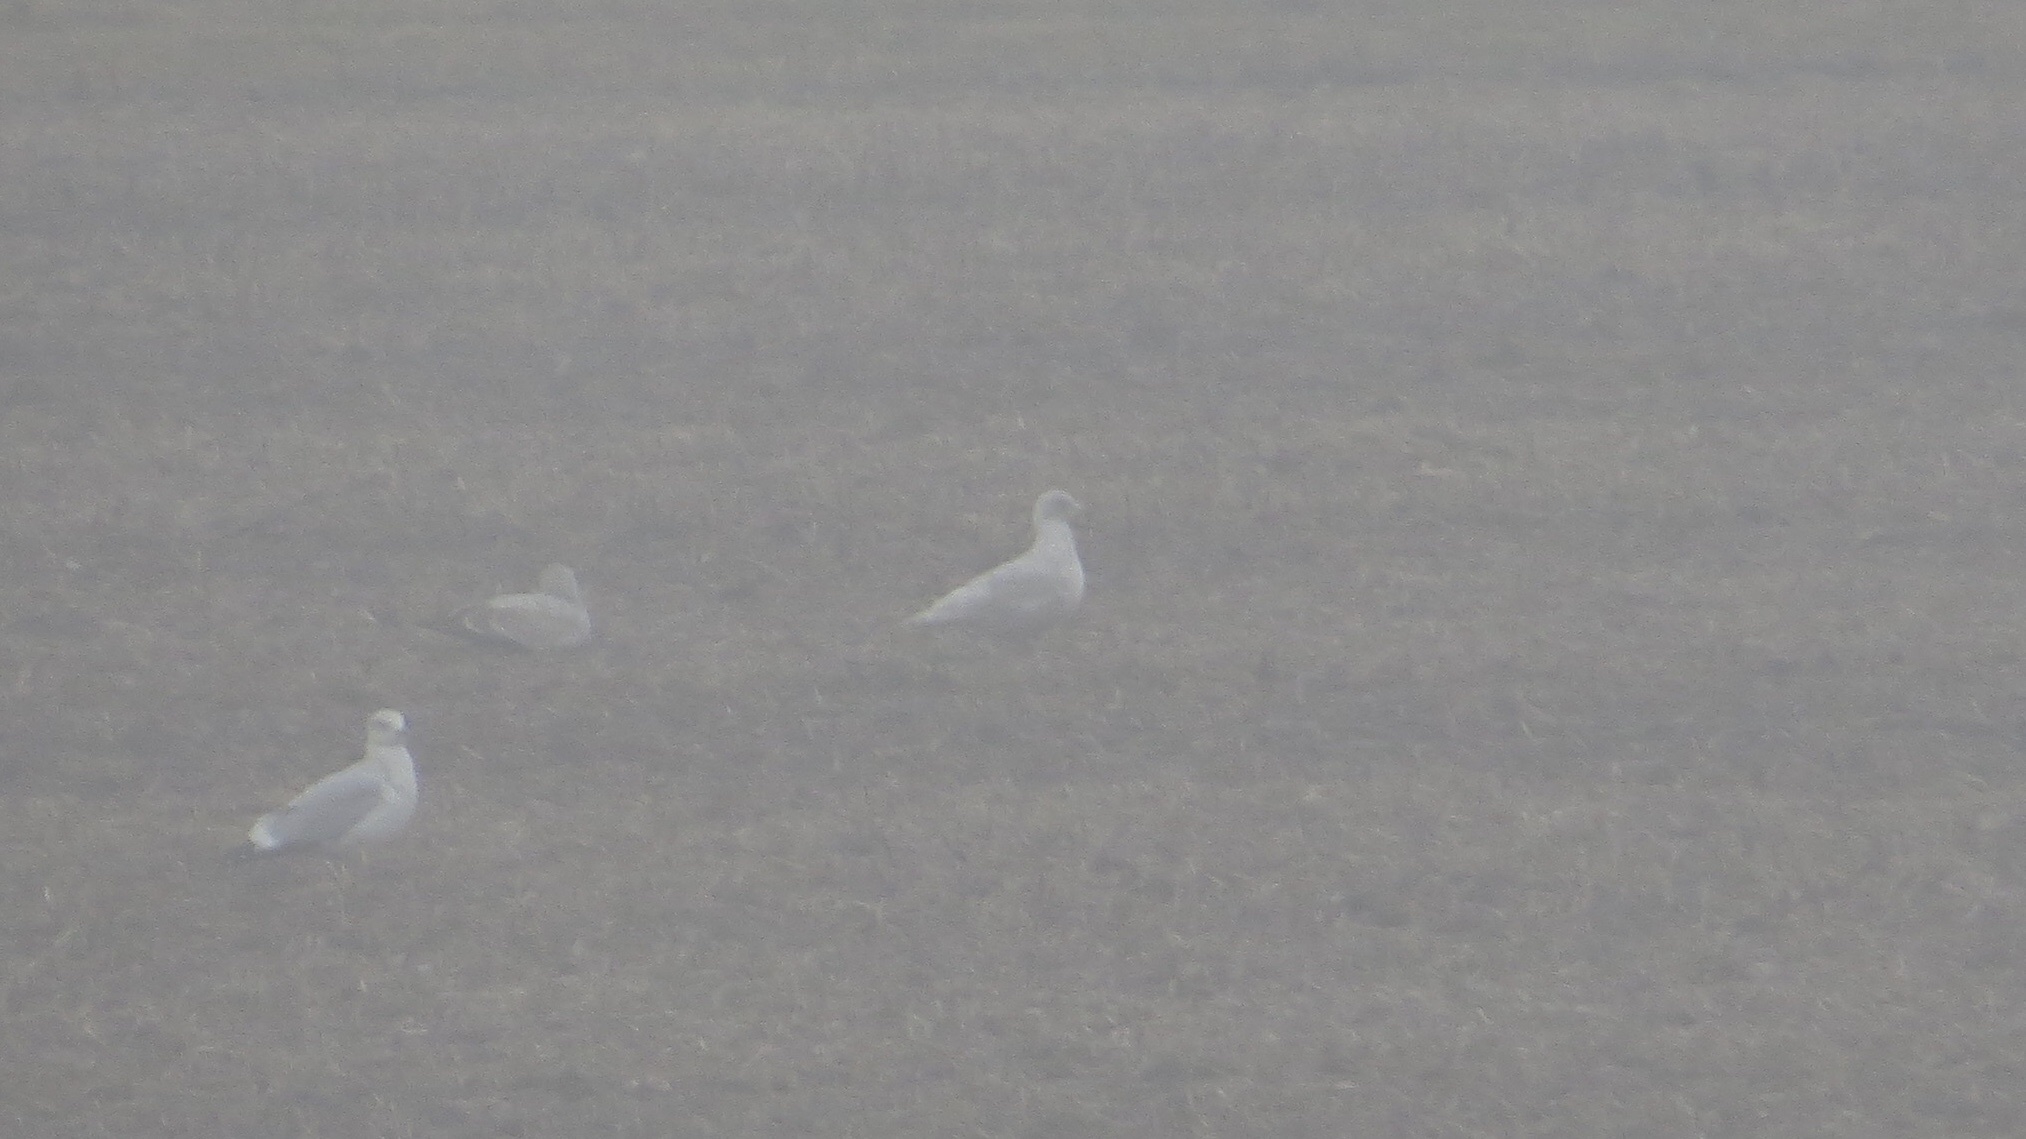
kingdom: Animalia
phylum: Chordata
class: Aves
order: Charadriiformes
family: Laridae
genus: Larus
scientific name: Larus glaucoides
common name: Iceland gull
